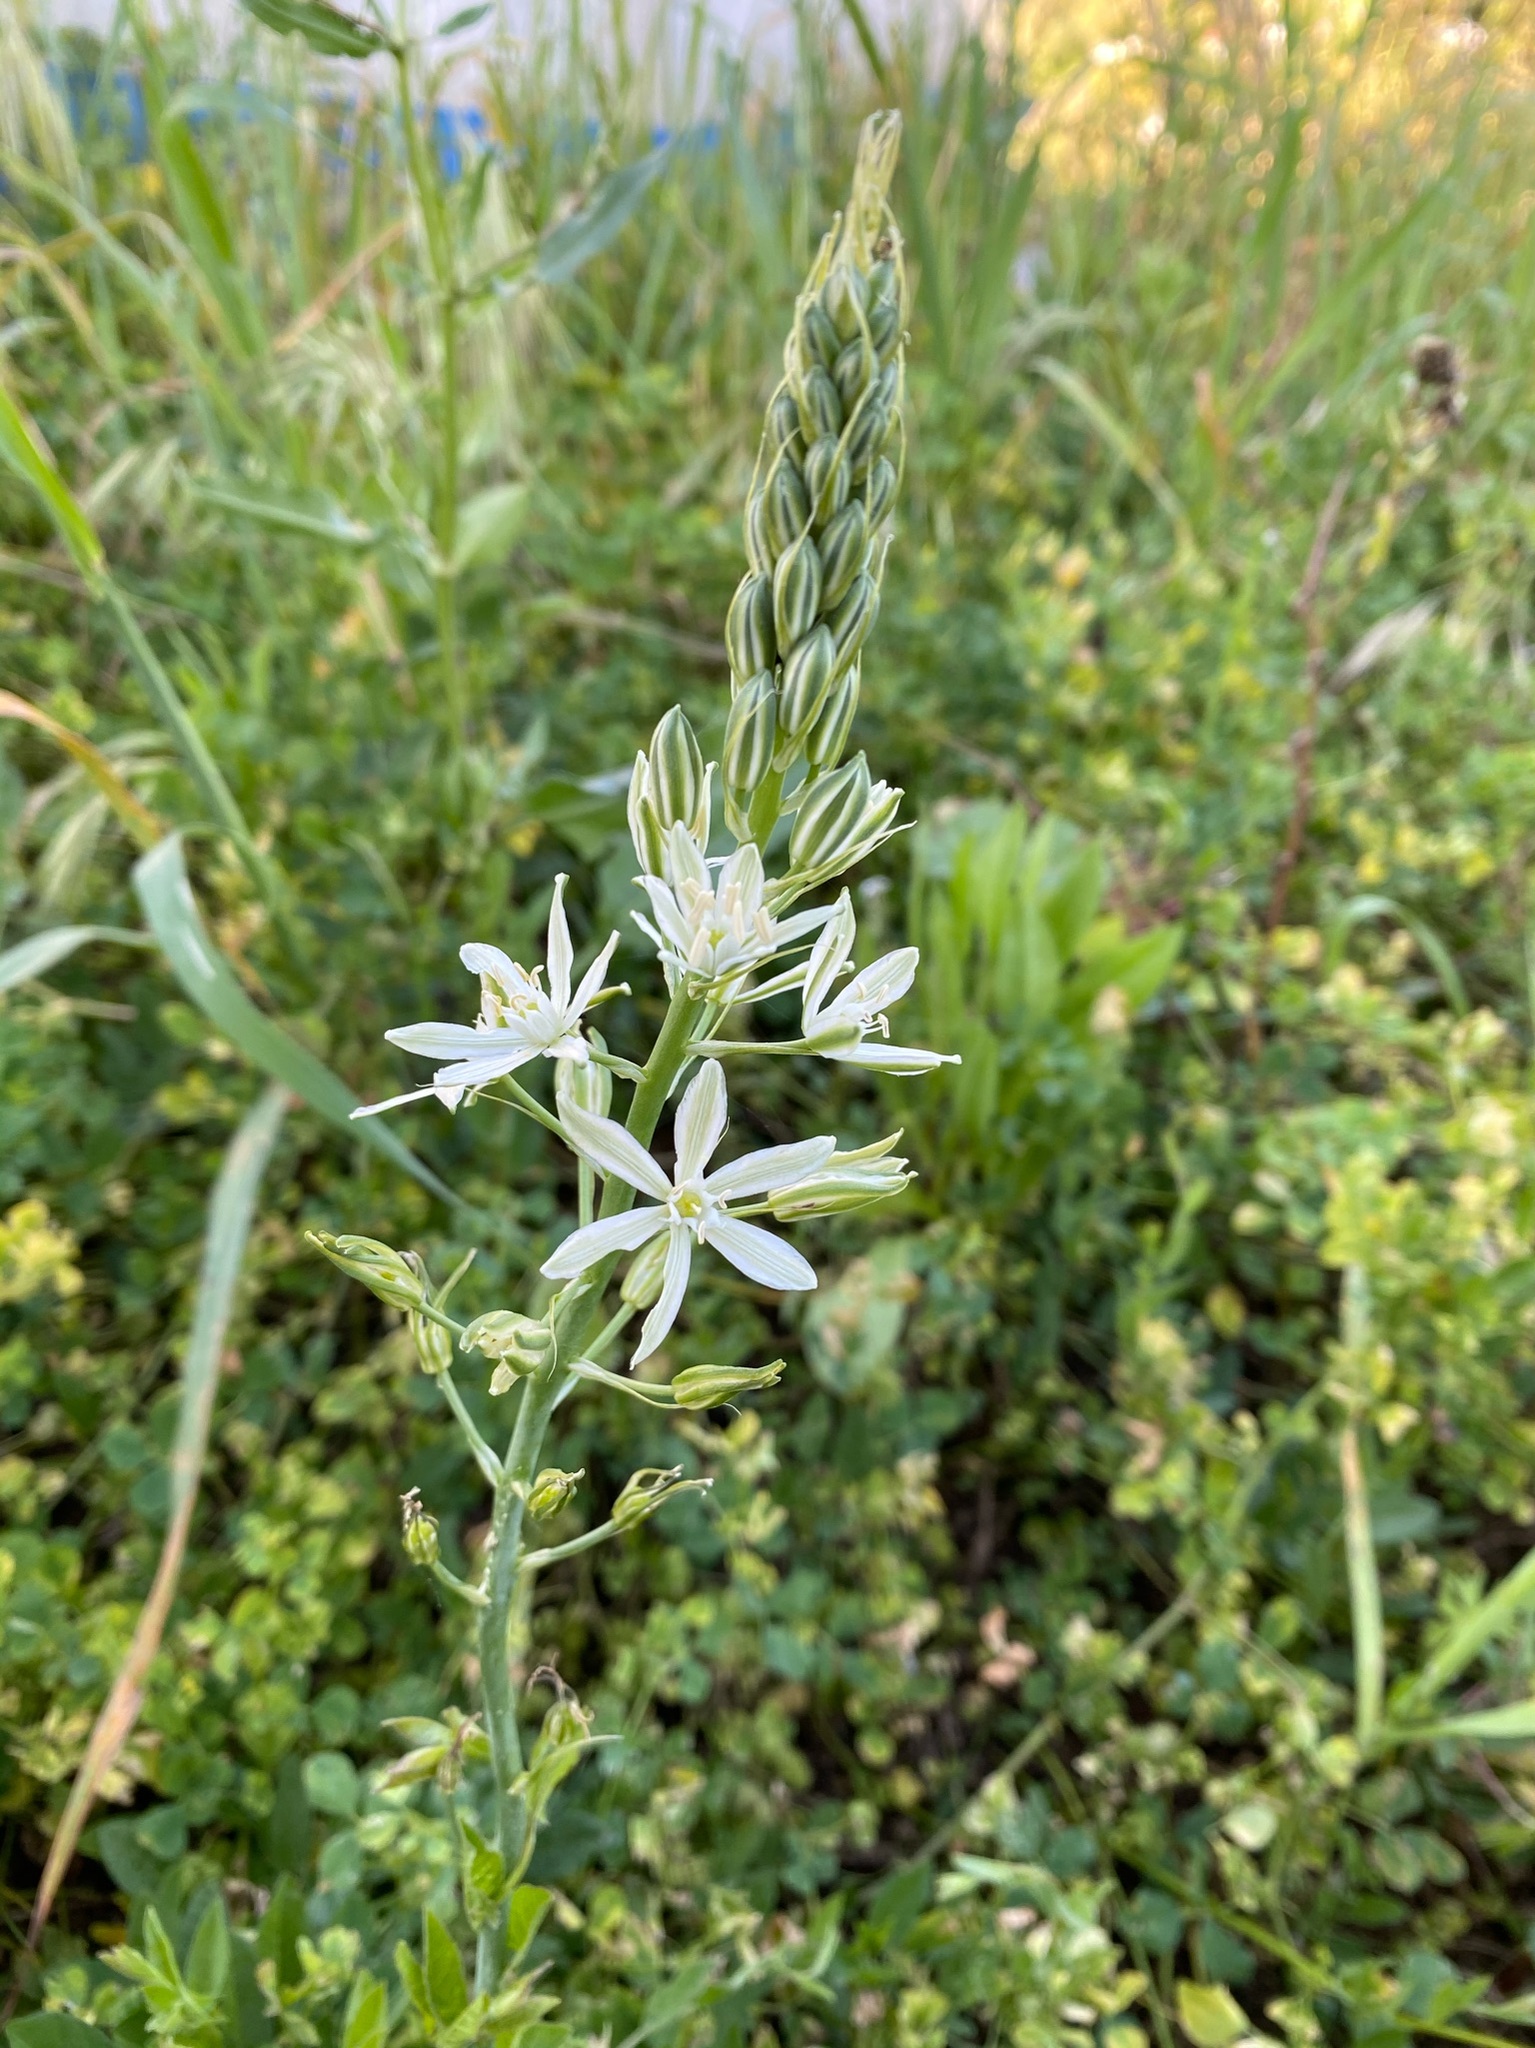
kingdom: Plantae
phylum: Tracheophyta
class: Liliopsida
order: Asparagales
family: Asparagaceae
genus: Ornithogalum
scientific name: Ornithogalum narbonense
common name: Bath-asparagus
